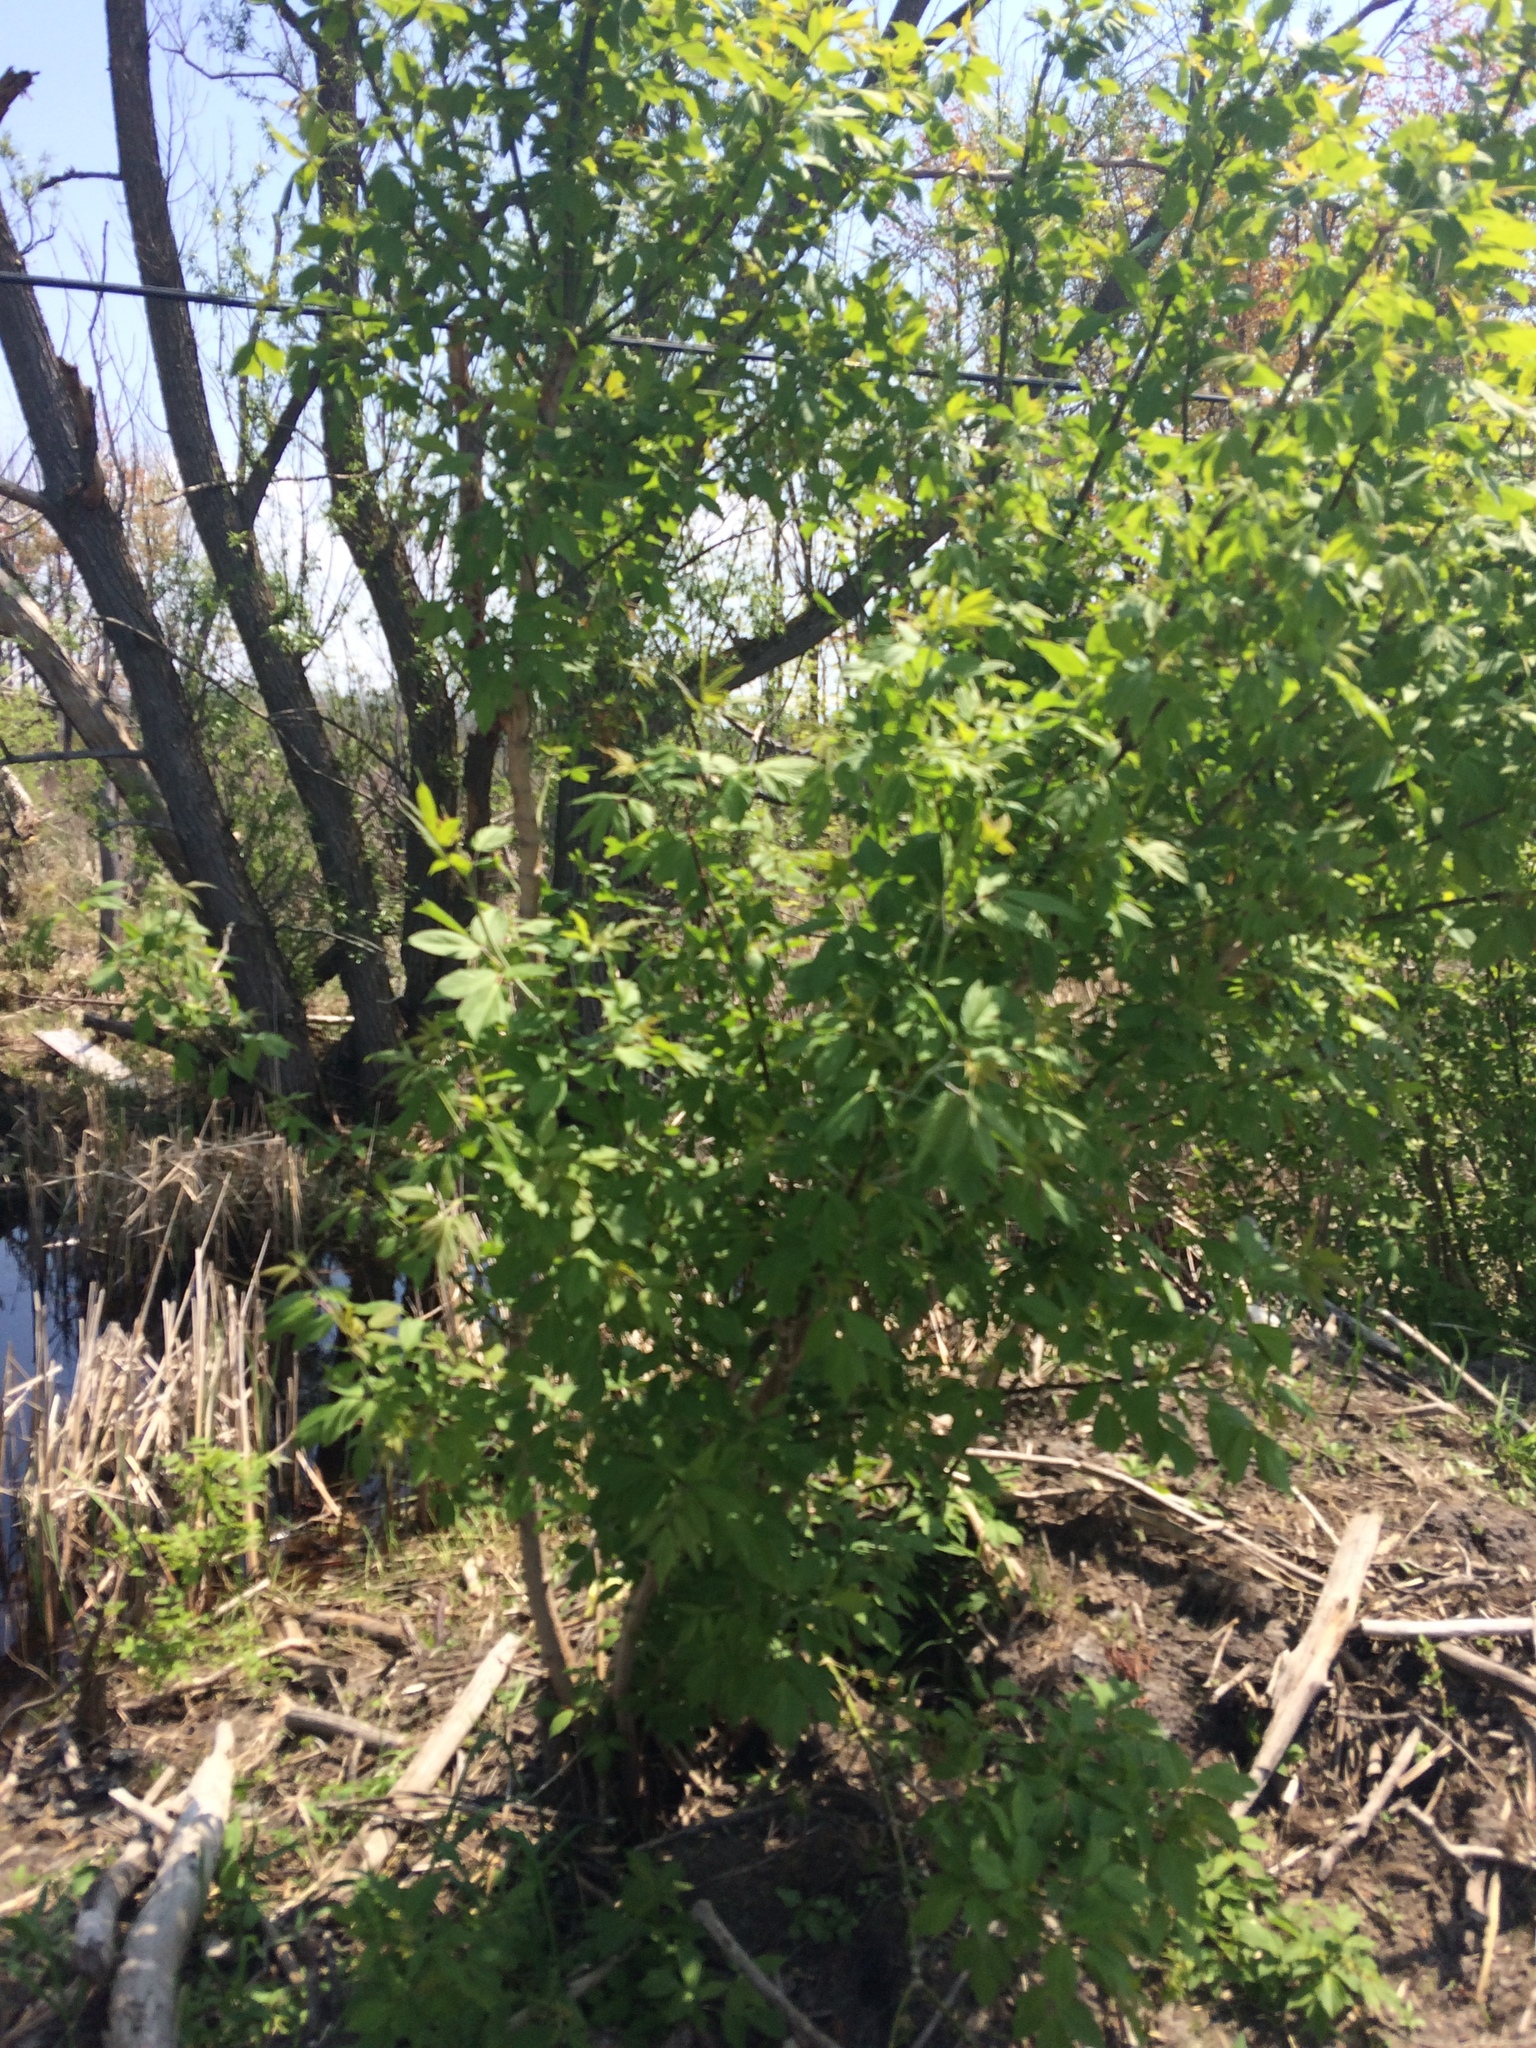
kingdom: Plantae
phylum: Tracheophyta
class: Magnoliopsida
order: Sapindales
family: Sapindaceae
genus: Acer
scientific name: Acer negundo
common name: Ashleaf maple
